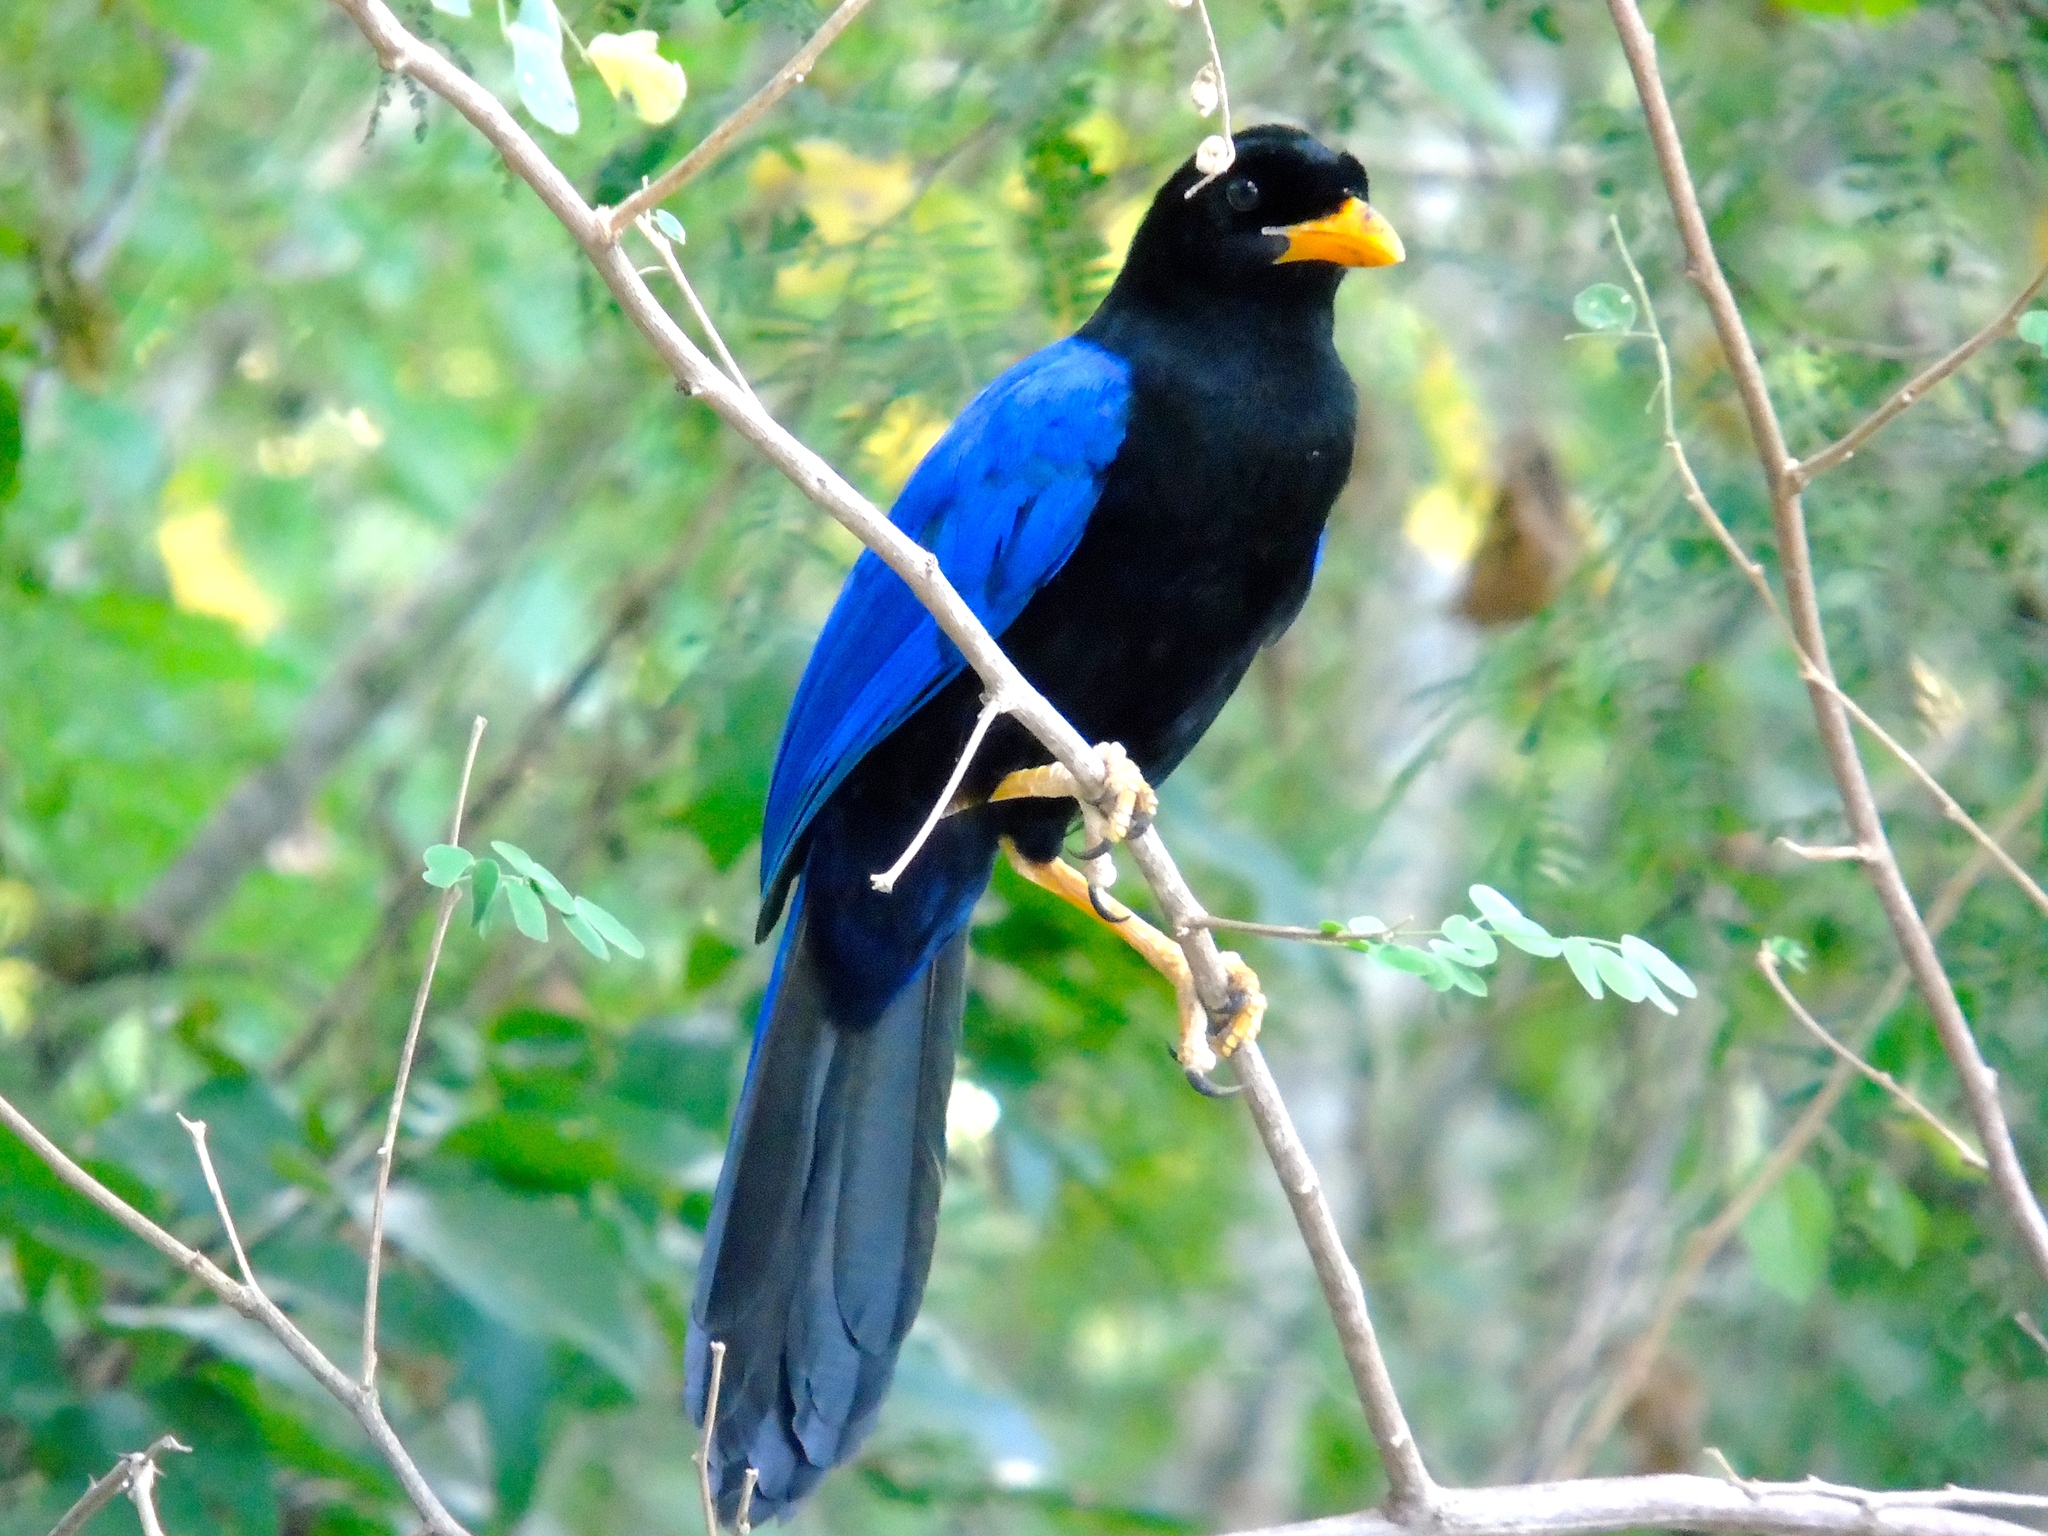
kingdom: Animalia
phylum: Chordata
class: Aves
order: Passeriformes
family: Corvidae
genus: Cyanocorax
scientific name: Cyanocorax beecheii
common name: Purplish-backed jay
